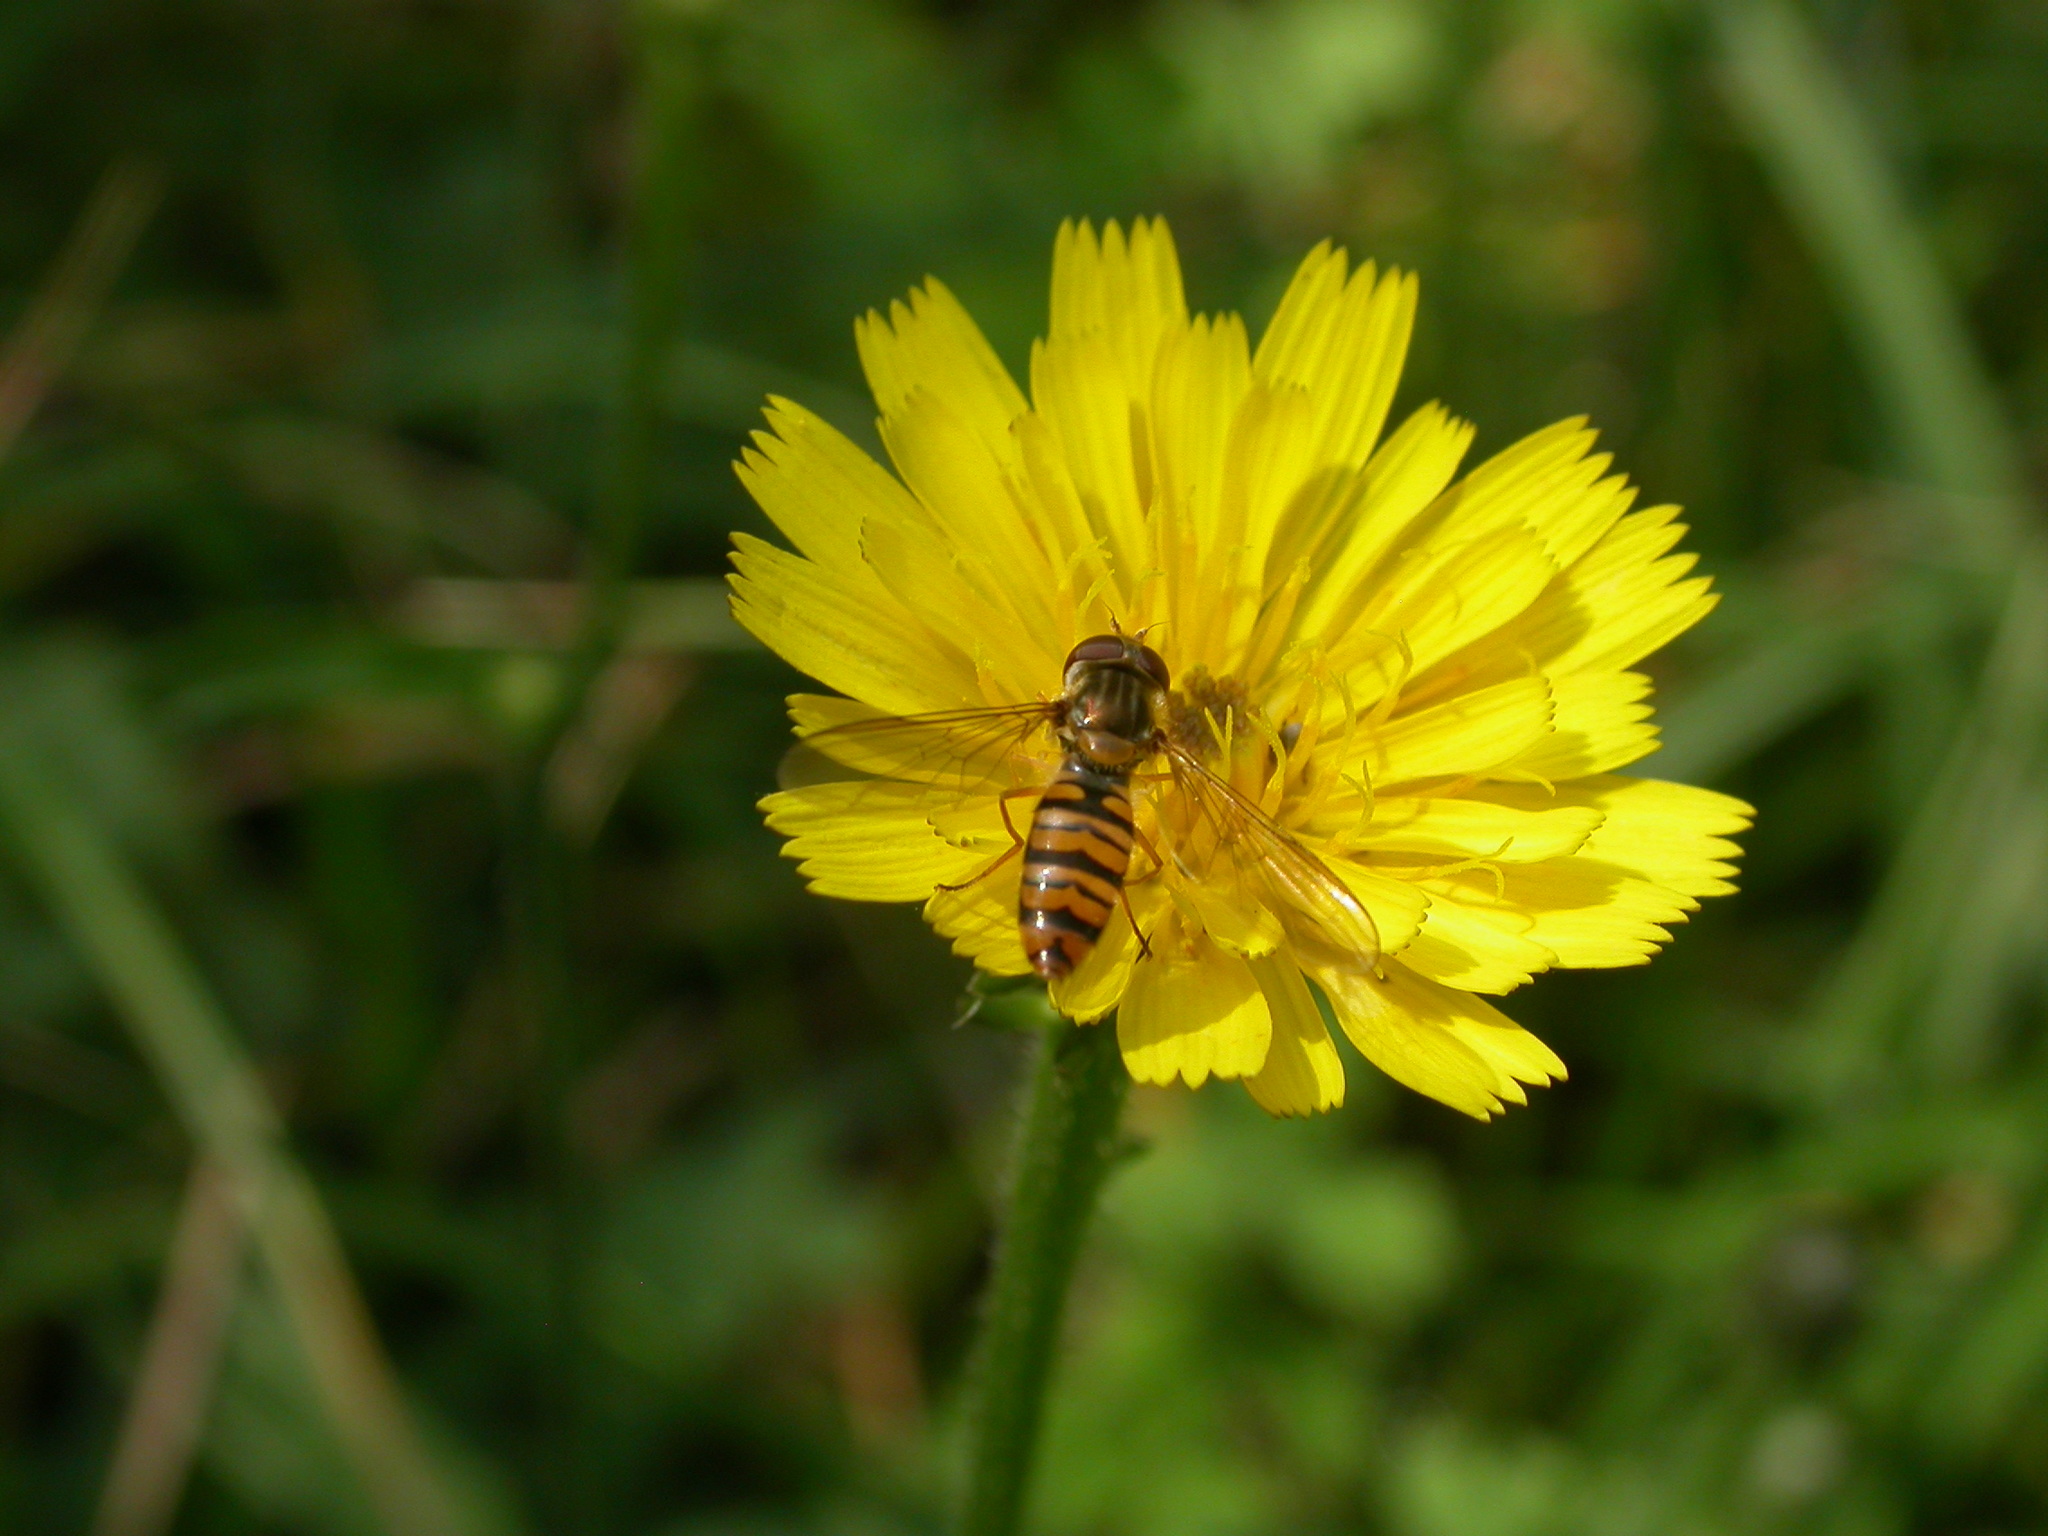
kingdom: Animalia
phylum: Arthropoda
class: Insecta
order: Diptera
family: Syrphidae
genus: Episyrphus
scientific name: Episyrphus balteatus
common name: Marmalade hoverfly
